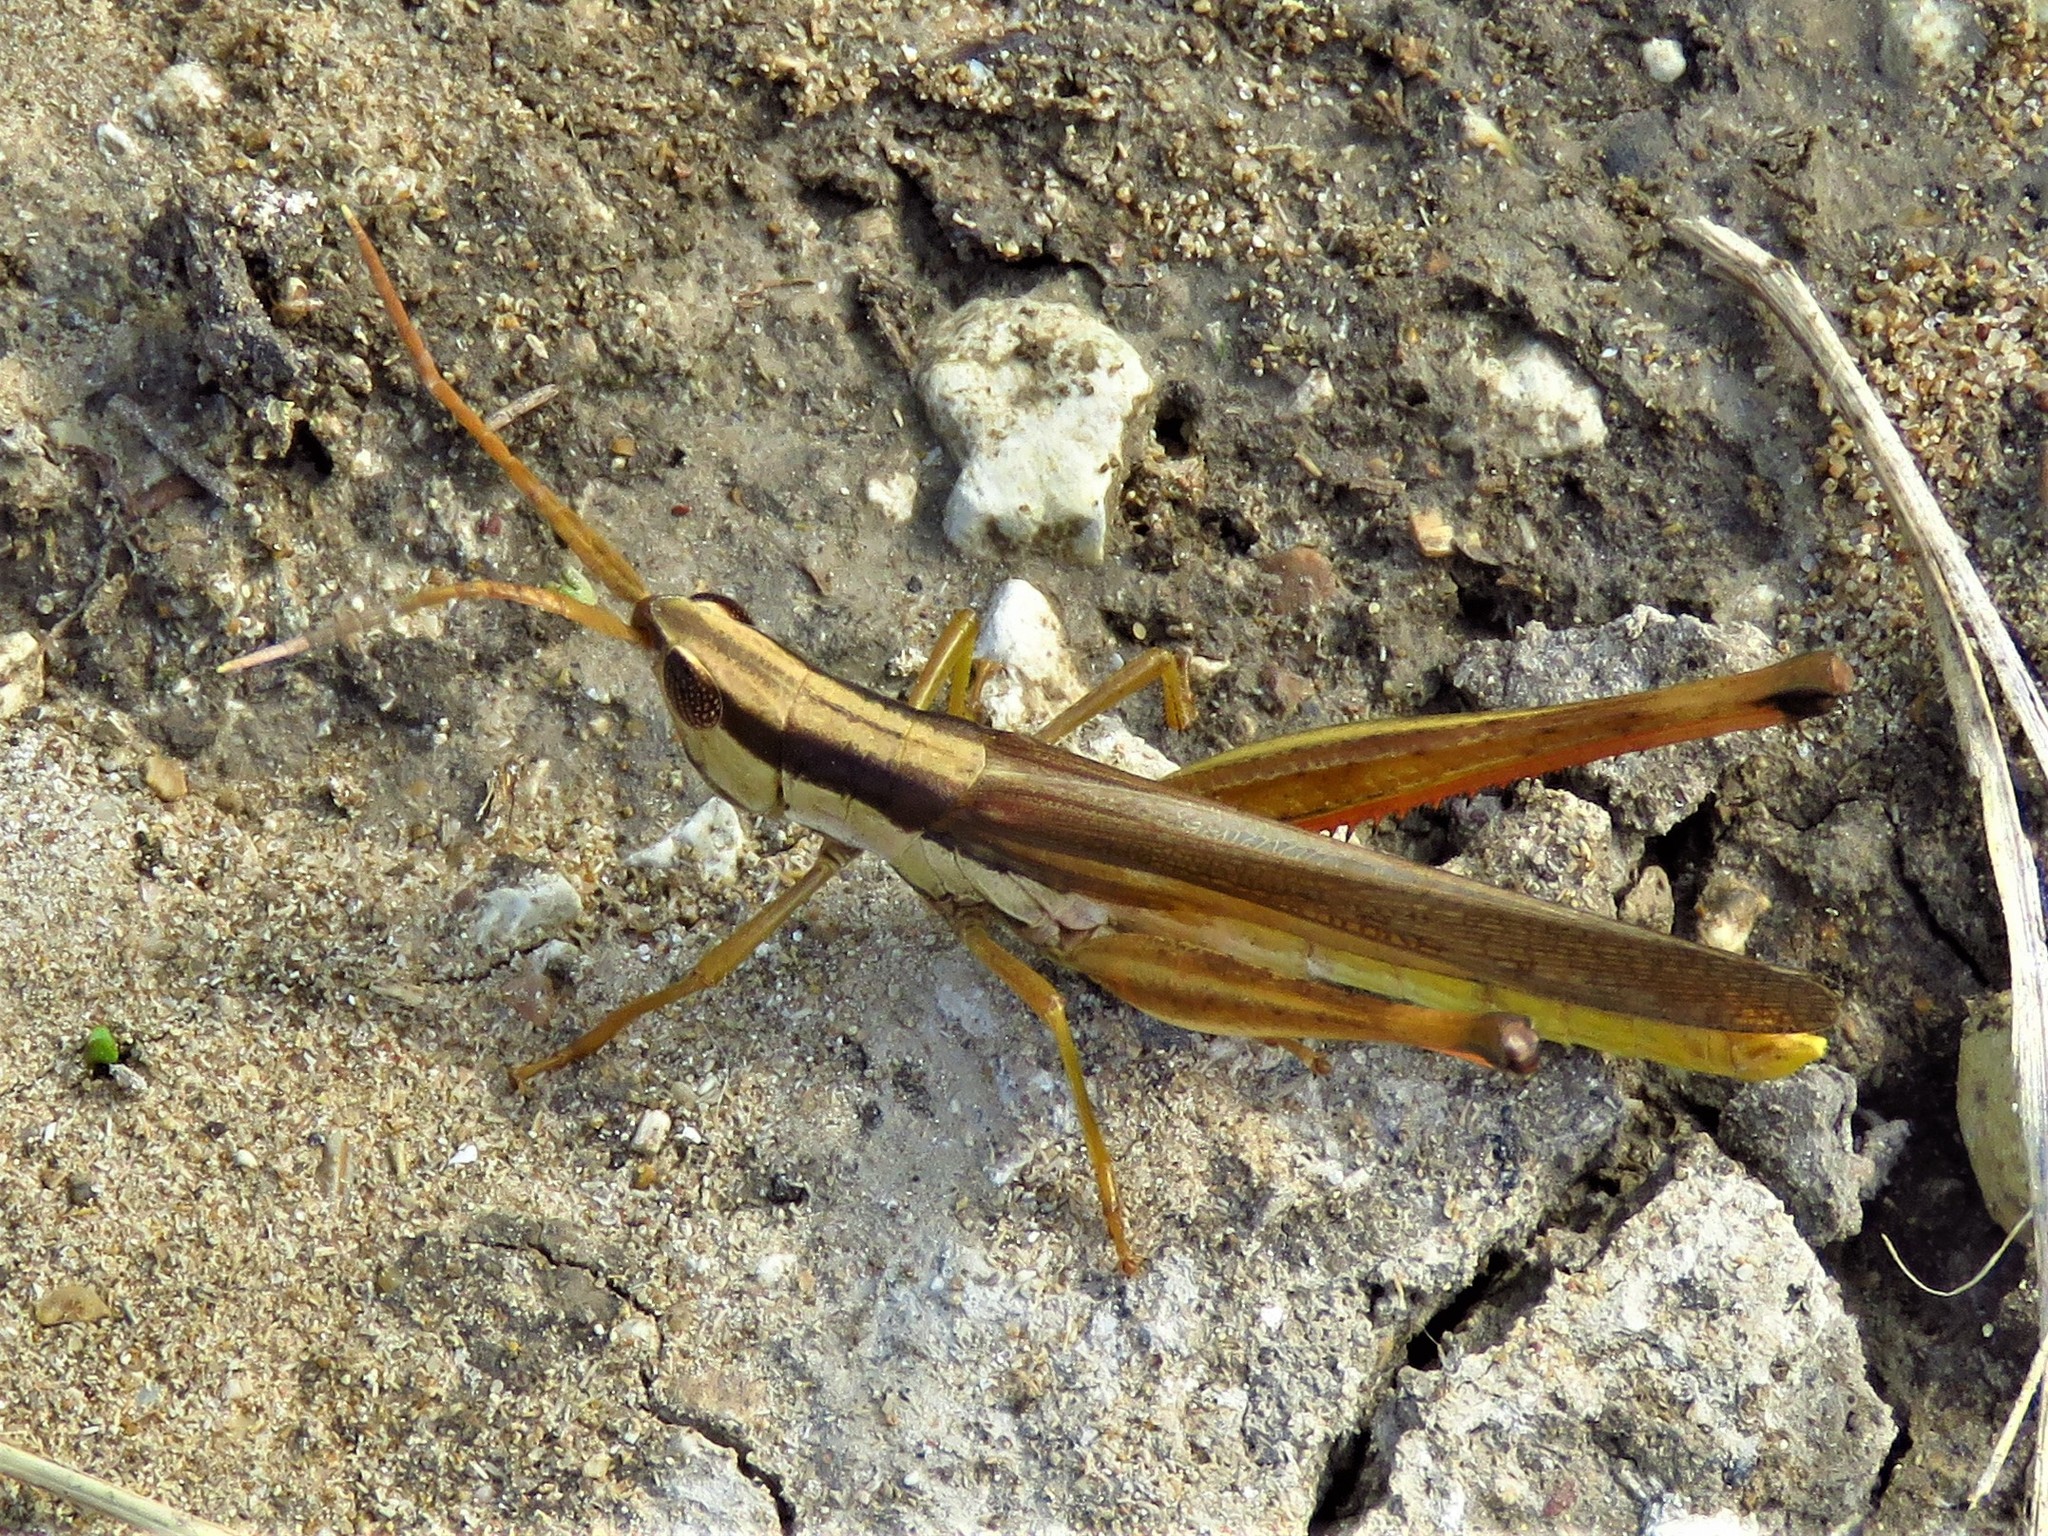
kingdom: Animalia
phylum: Arthropoda
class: Insecta
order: Orthoptera
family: Acrididae
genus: Mermiria
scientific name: Mermiria bivittata
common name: Two-striped mermiria grasshopper
